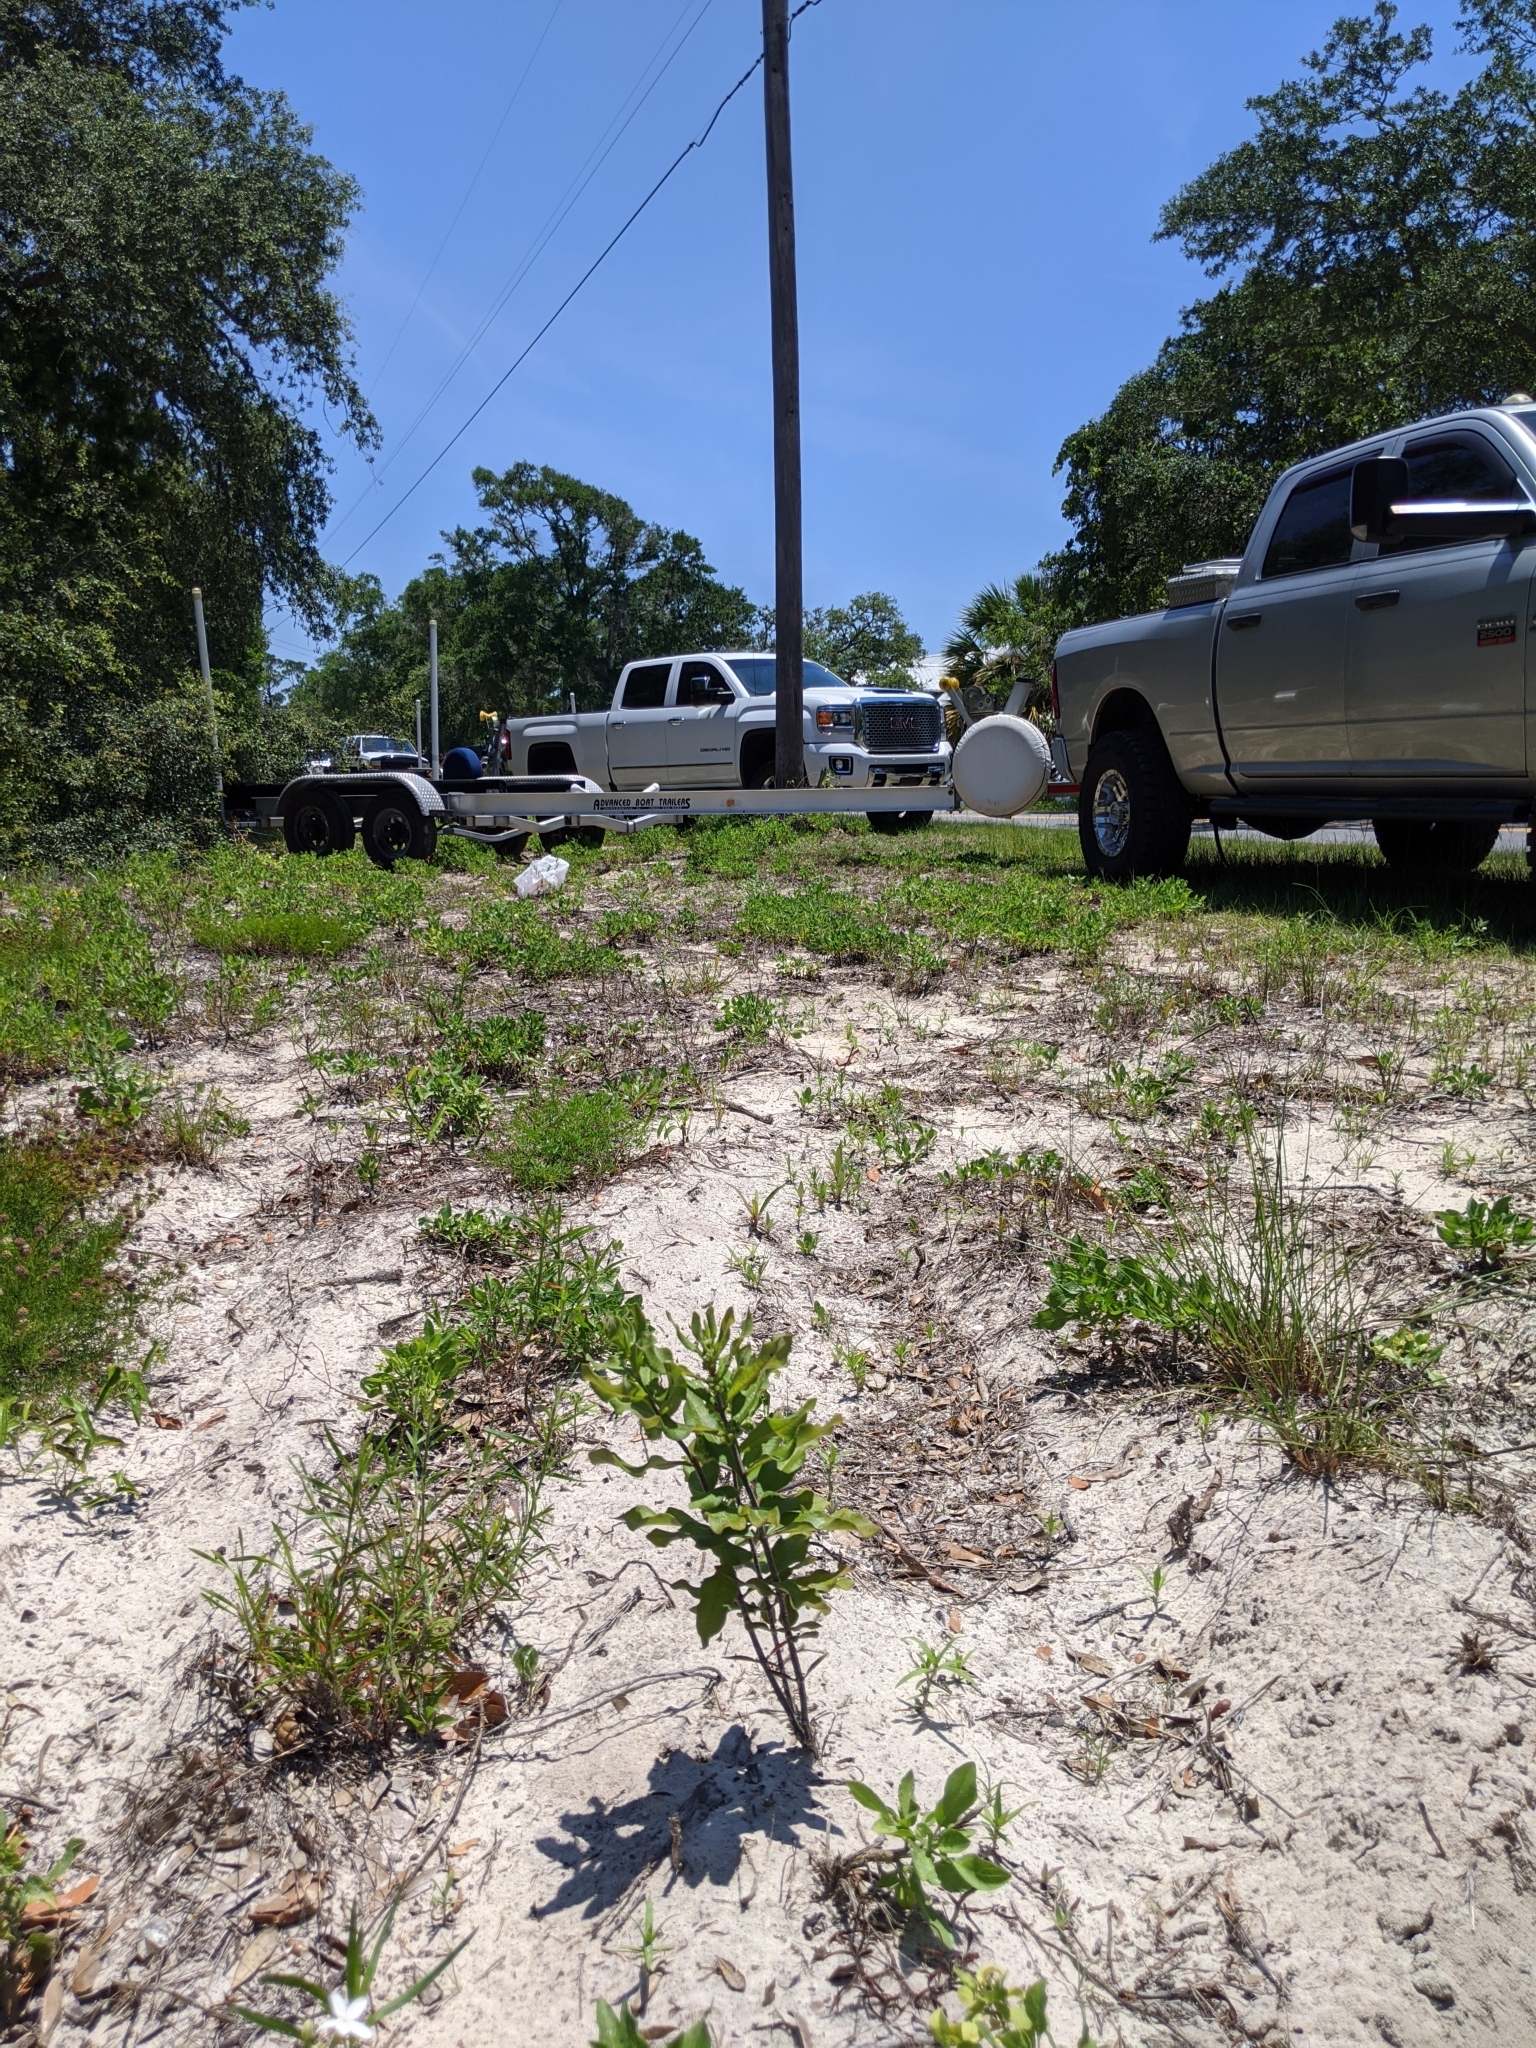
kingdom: Plantae
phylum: Tracheophyta
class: Magnoliopsida
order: Gentianales
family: Apocynaceae
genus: Asclepias
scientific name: Asclepias tomentosa
